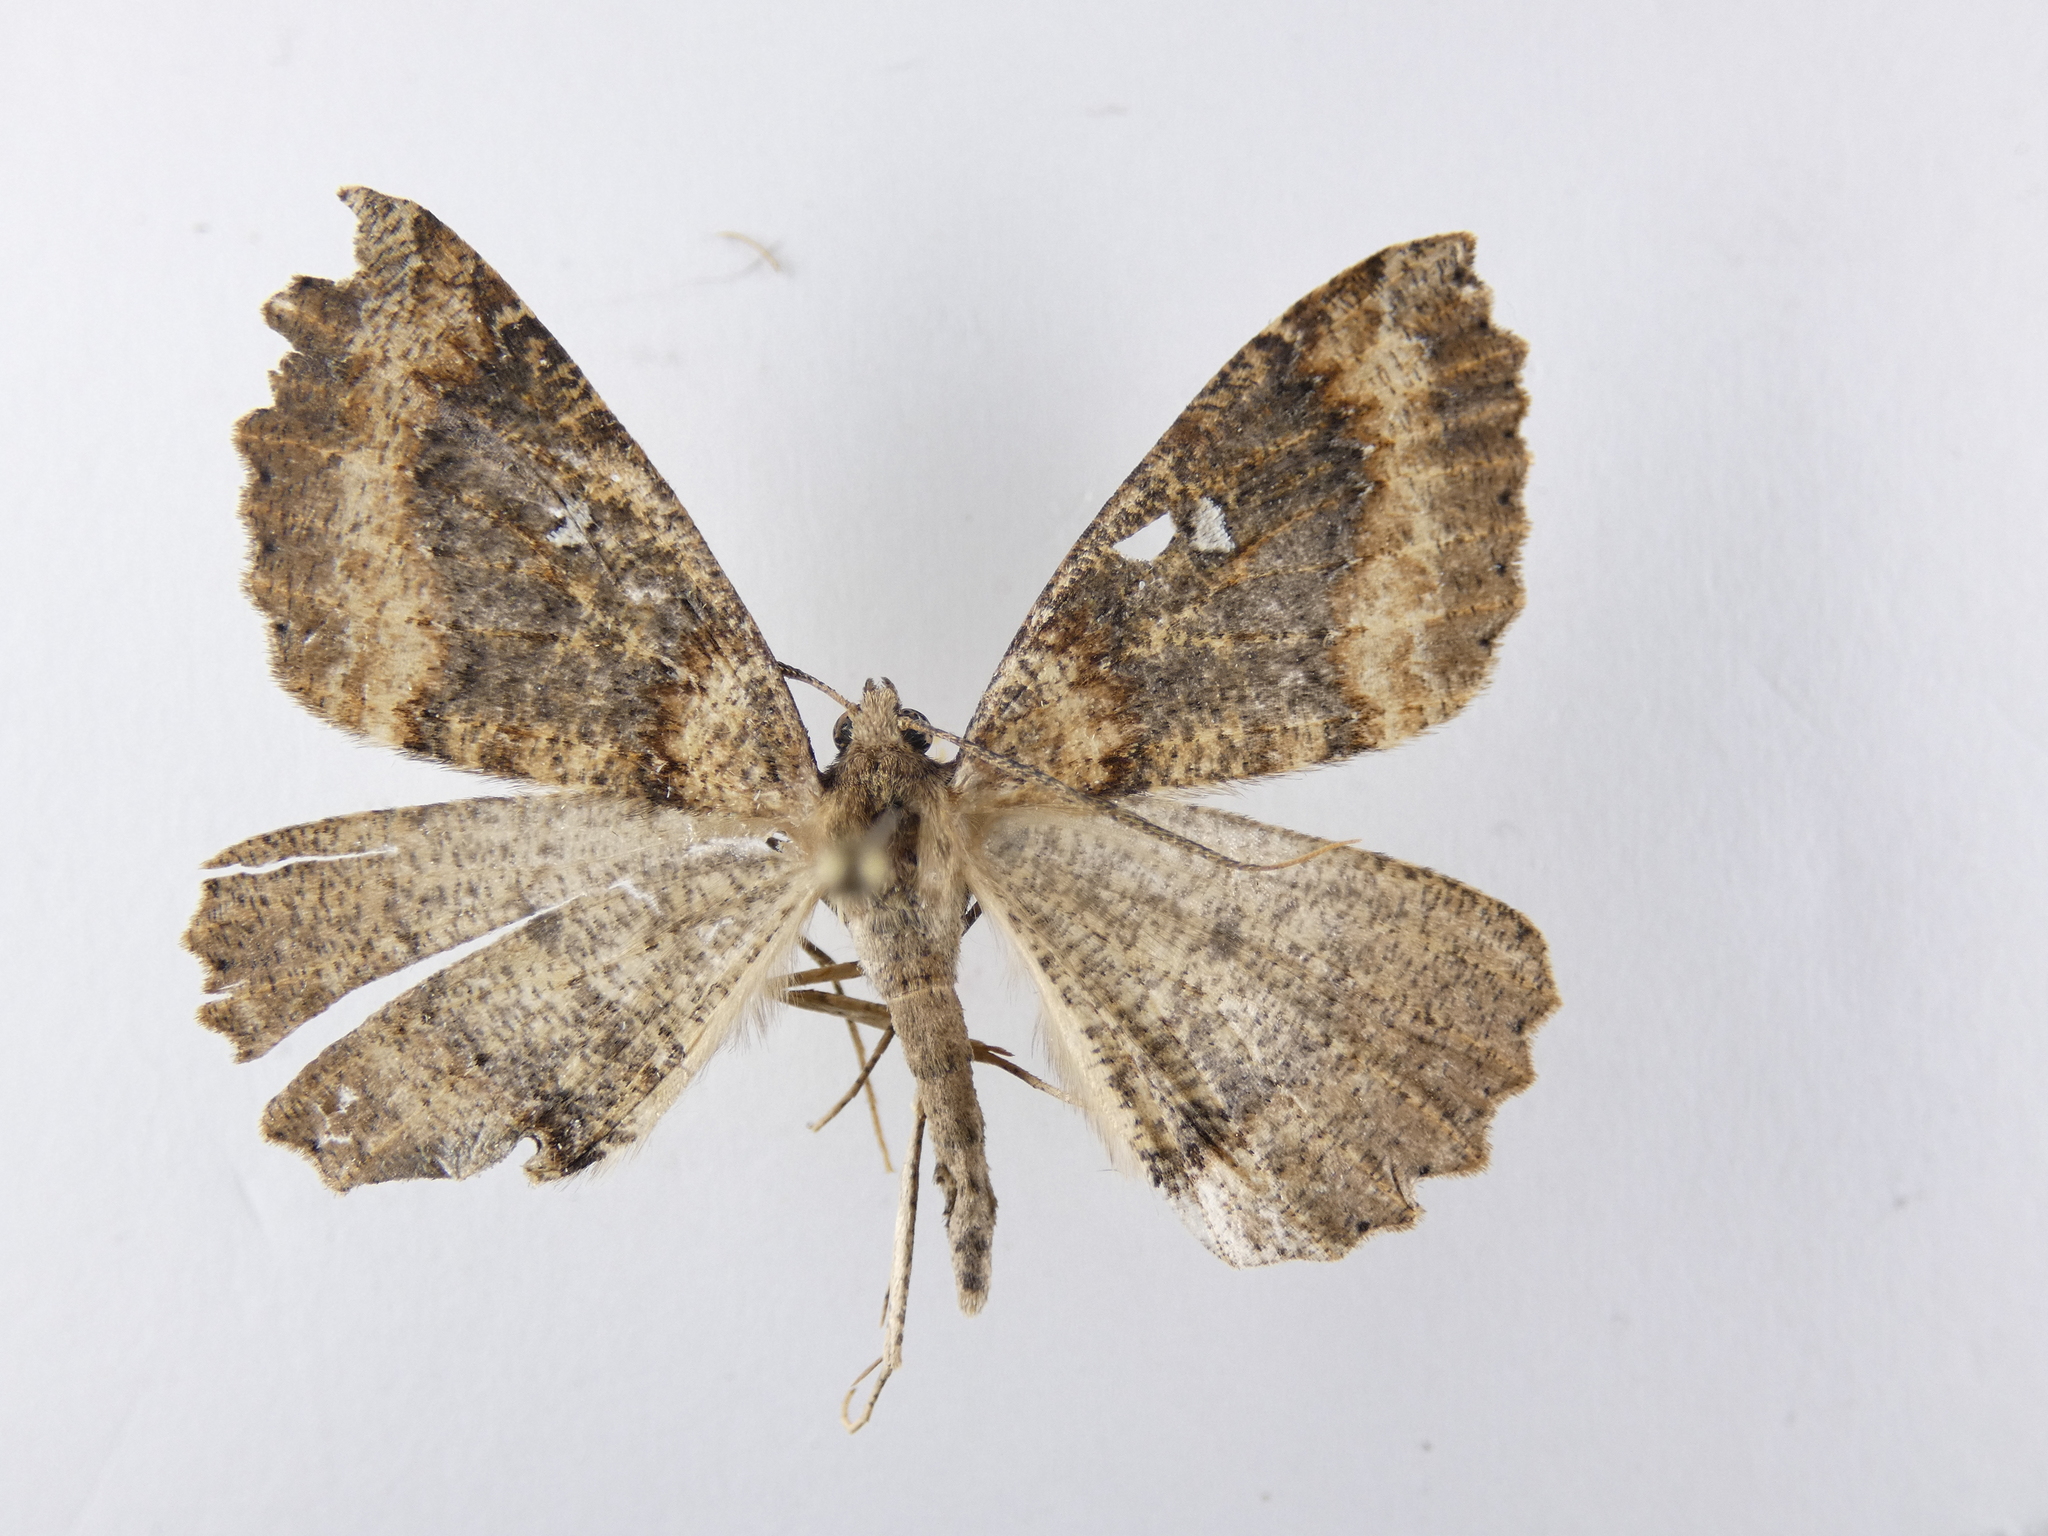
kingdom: Animalia
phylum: Arthropoda
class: Insecta
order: Lepidoptera
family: Geometridae
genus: Cleora
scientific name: Cleora scriptaria
